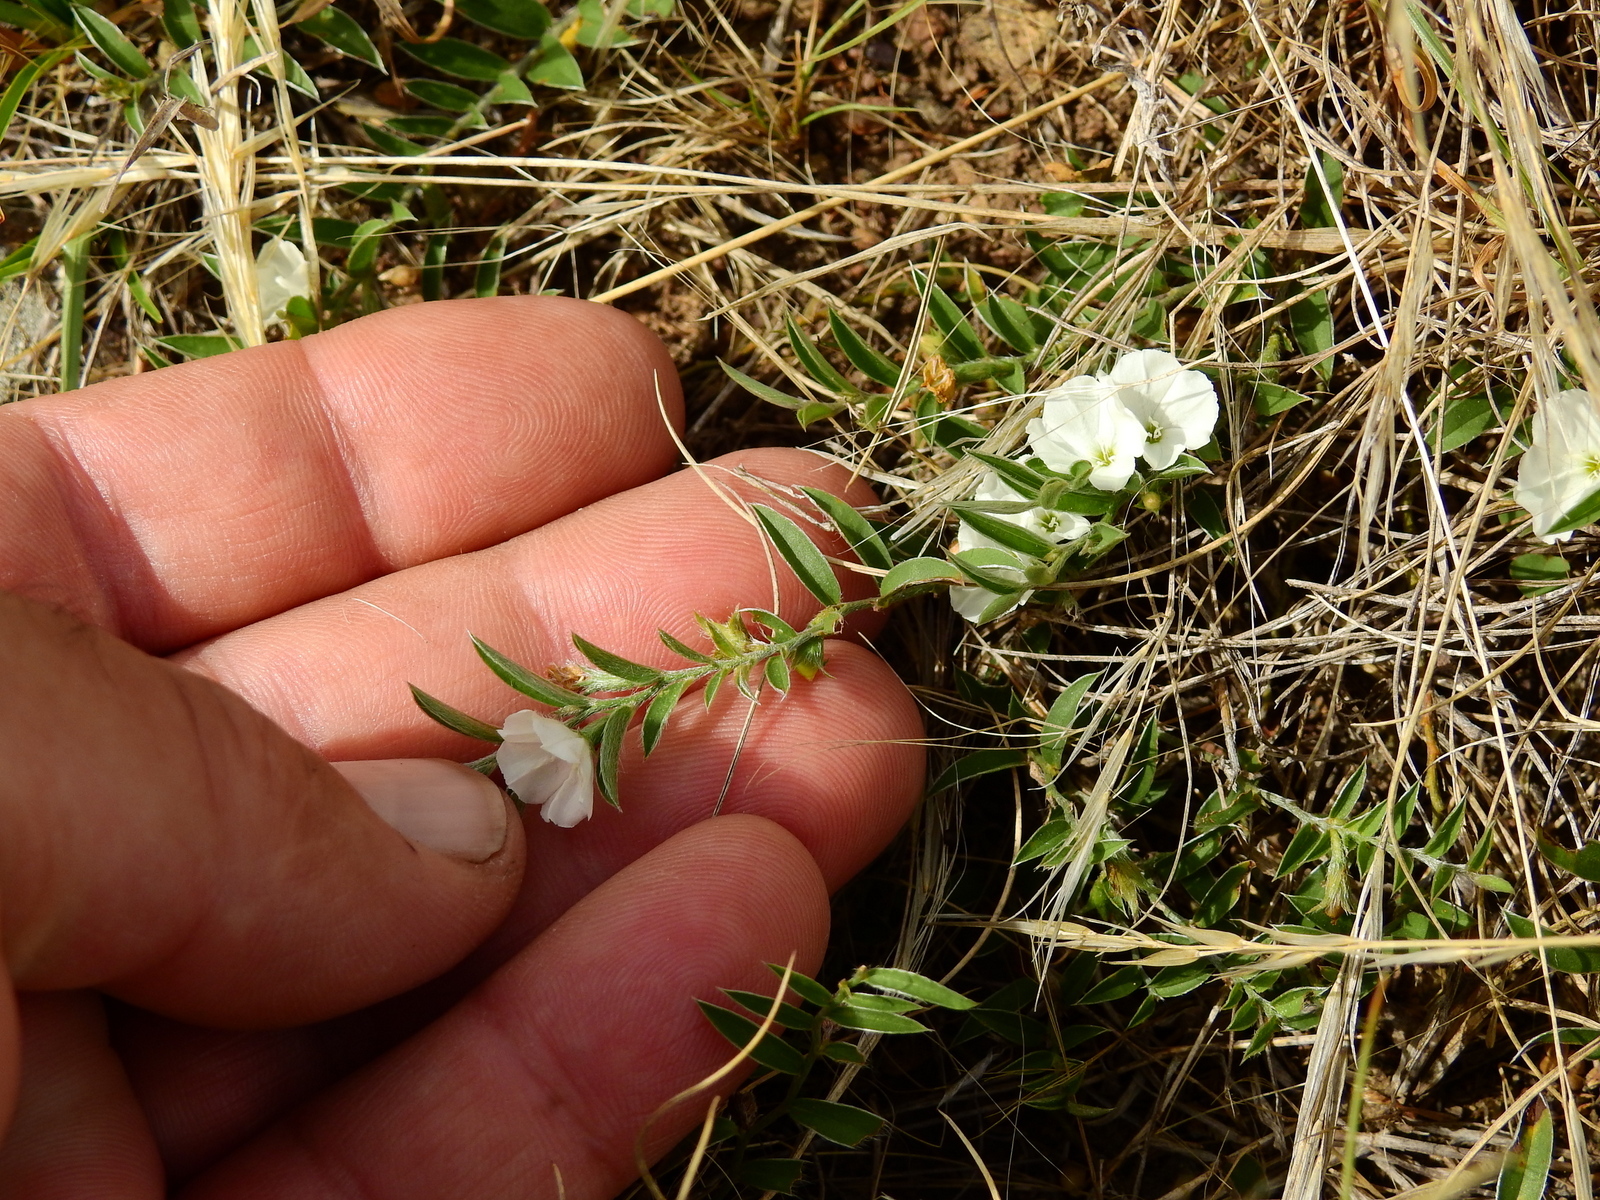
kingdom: Plantae
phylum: Tracheophyta
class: Magnoliopsida
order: Solanales
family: Convolvulaceae
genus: Evolvulus
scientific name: Evolvulus sericeus
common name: Blue dots
